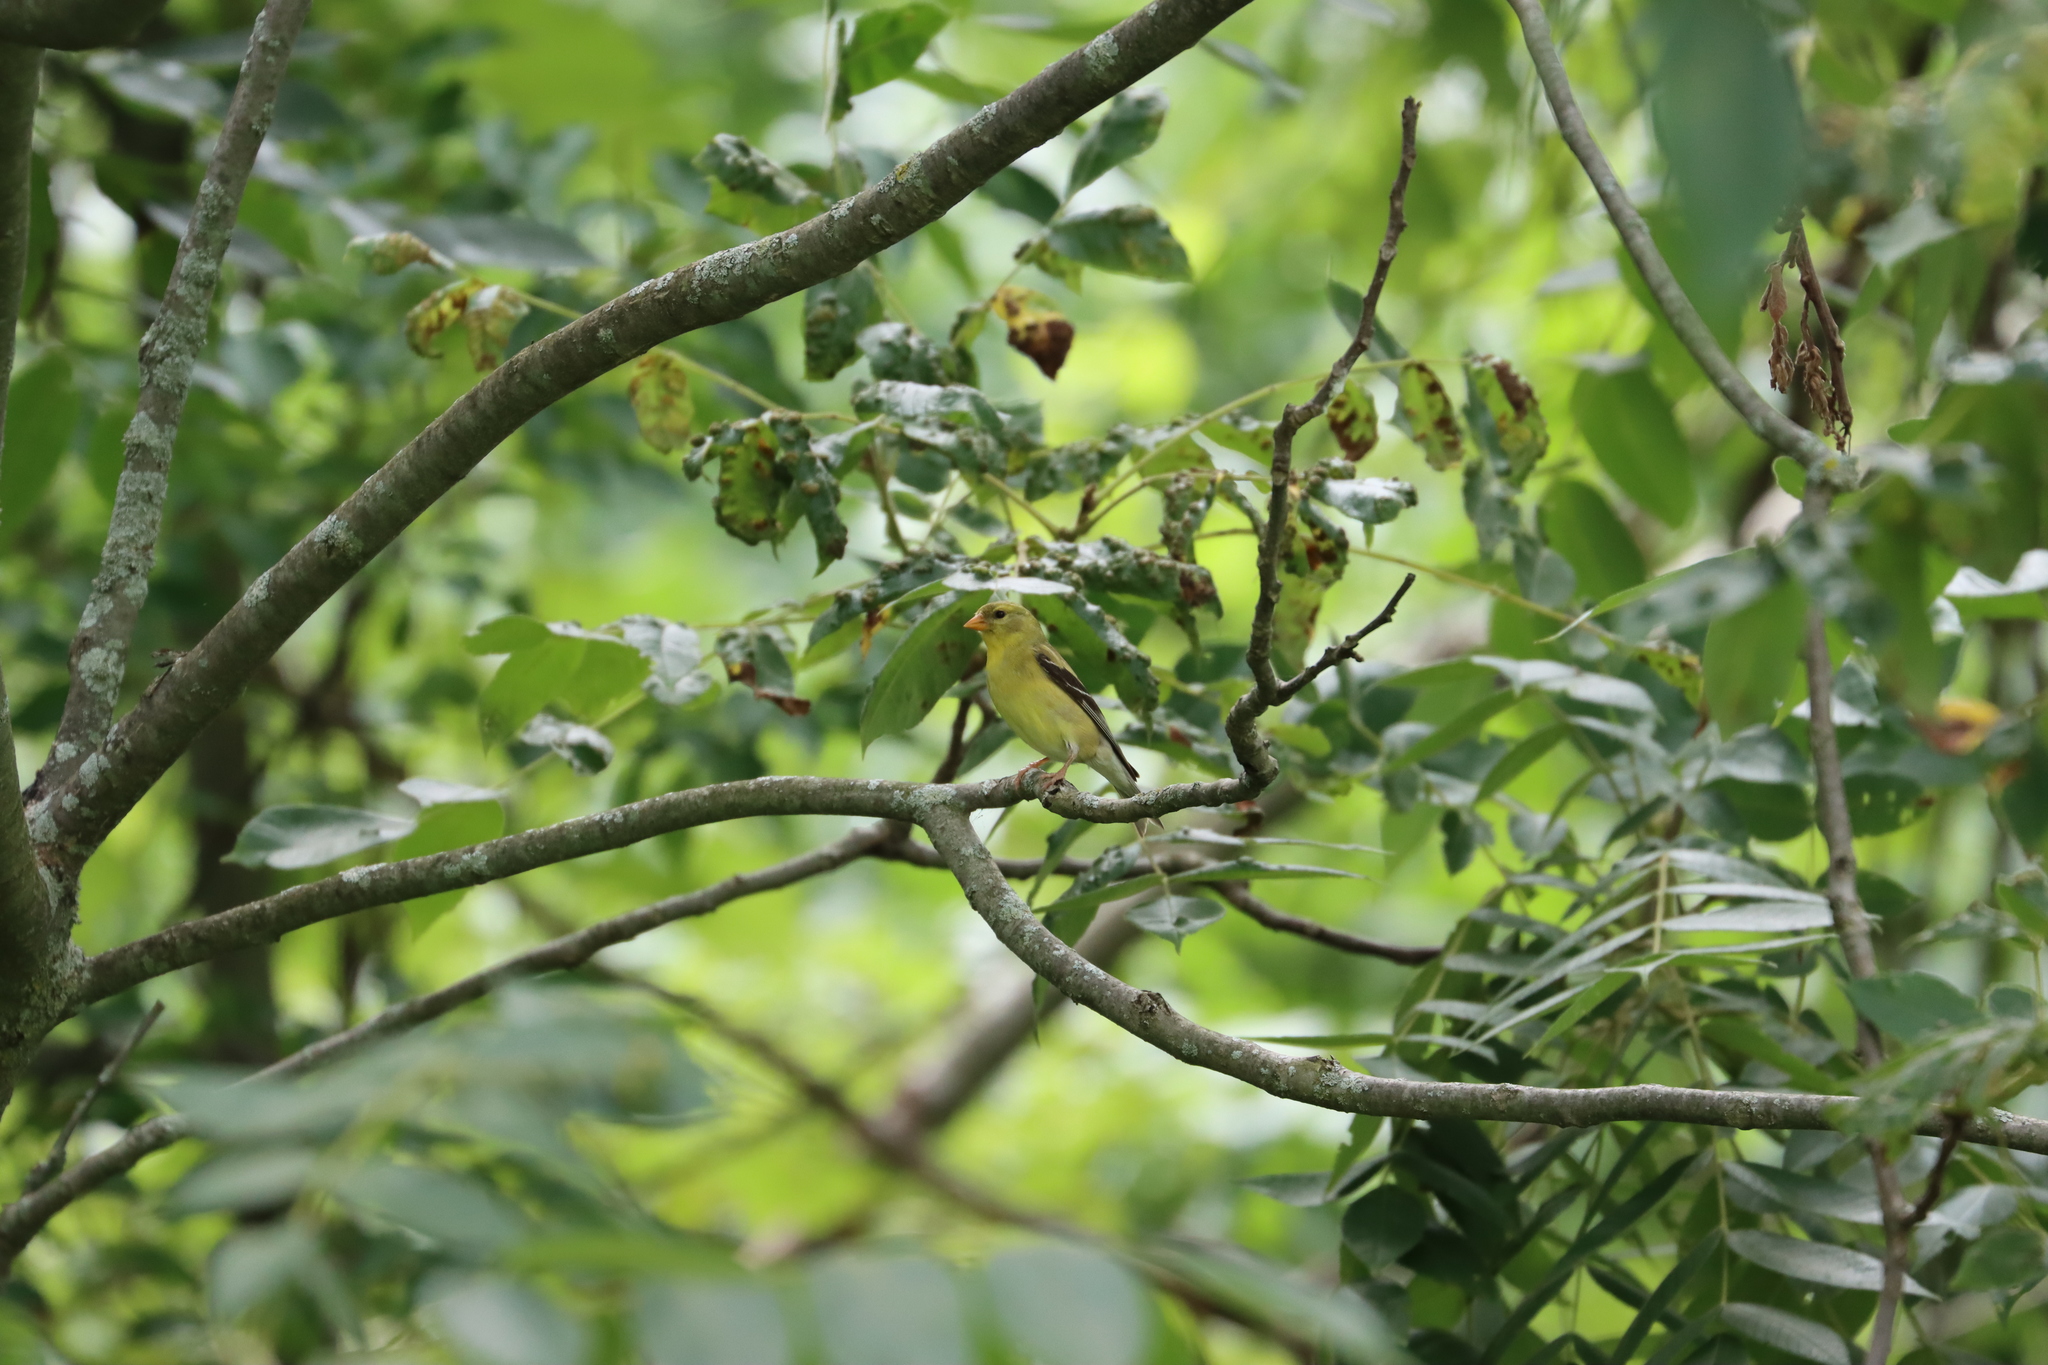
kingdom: Animalia
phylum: Chordata
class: Aves
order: Passeriformes
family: Fringillidae
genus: Spinus
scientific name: Spinus tristis
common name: American goldfinch
